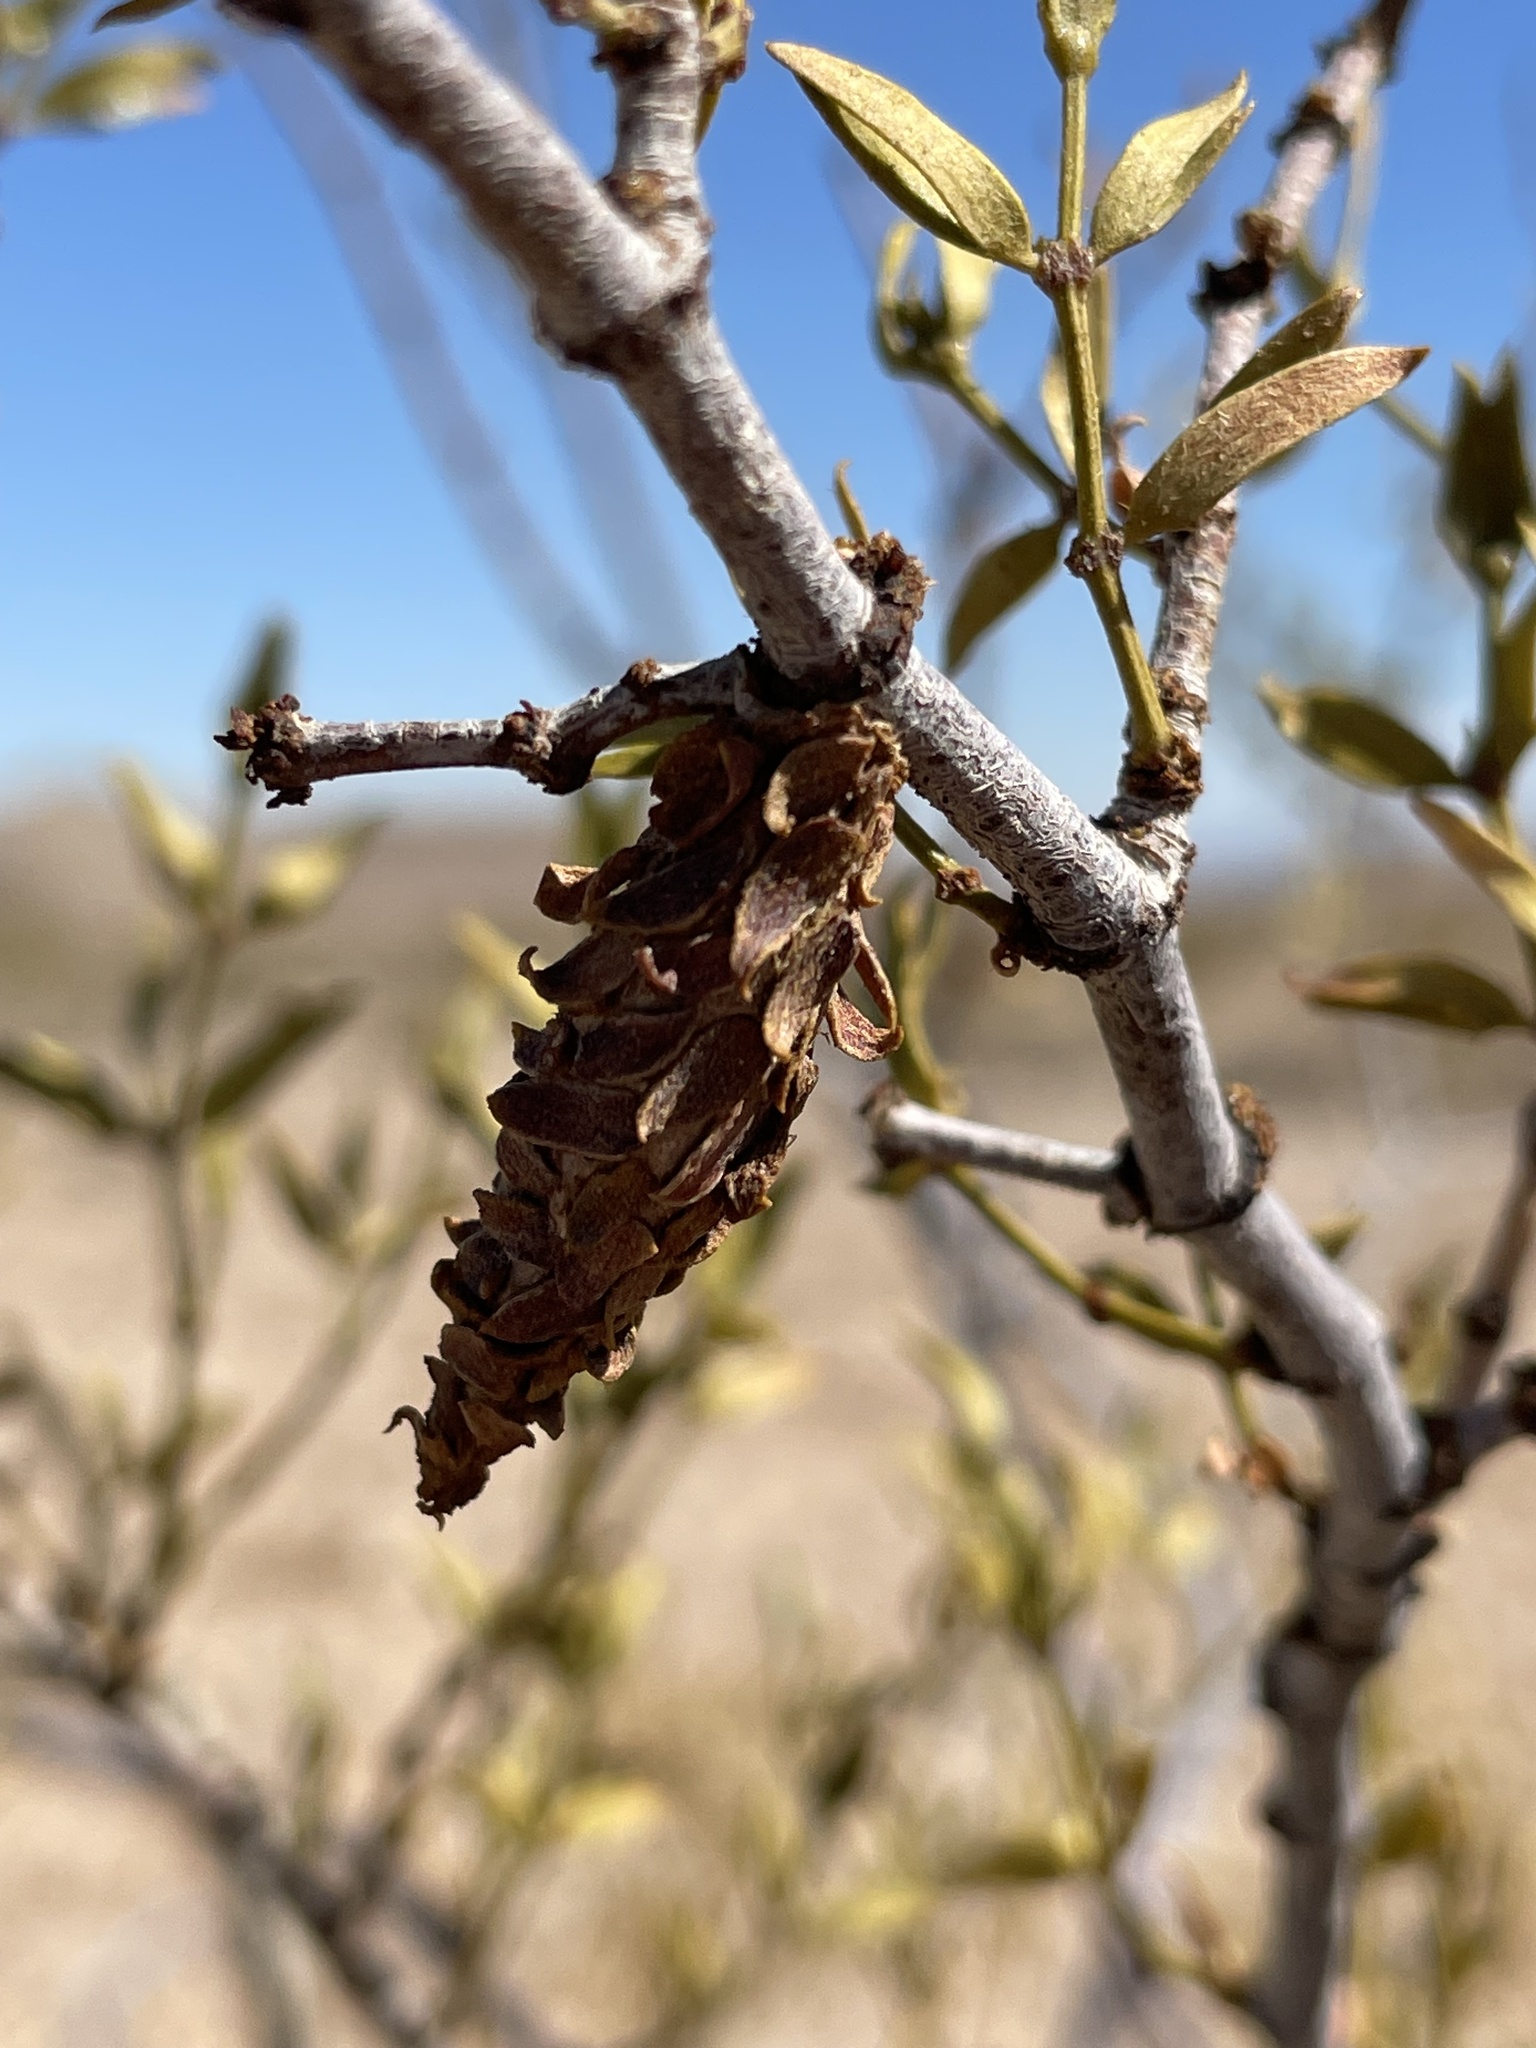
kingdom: Animalia
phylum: Arthropoda
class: Insecta
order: Lepidoptera
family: Psychidae
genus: Thyridopteryx
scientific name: Thyridopteryx meadii
